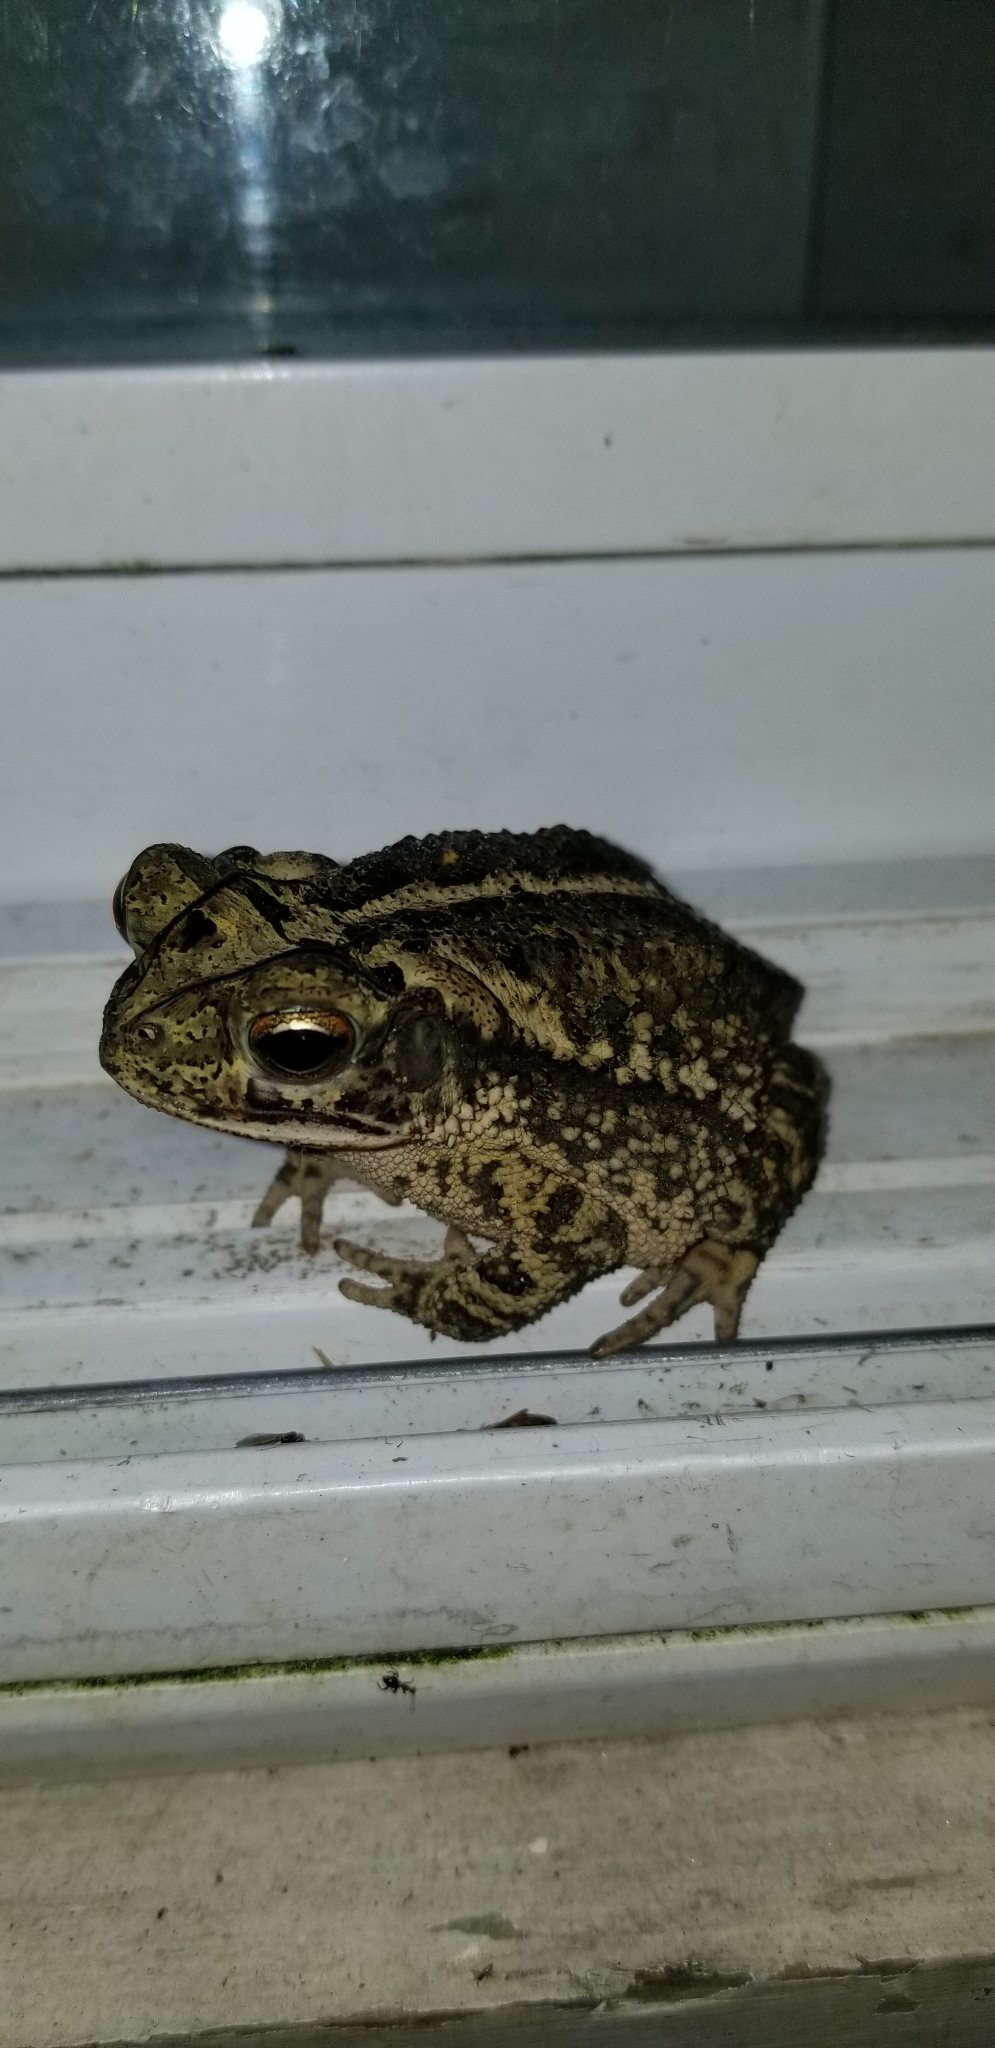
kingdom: Animalia
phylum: Chordata
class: Amphibia
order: Anura
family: Bufonidae
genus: Incilius
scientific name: Incilius nebulifer
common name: Gulf coast toad
